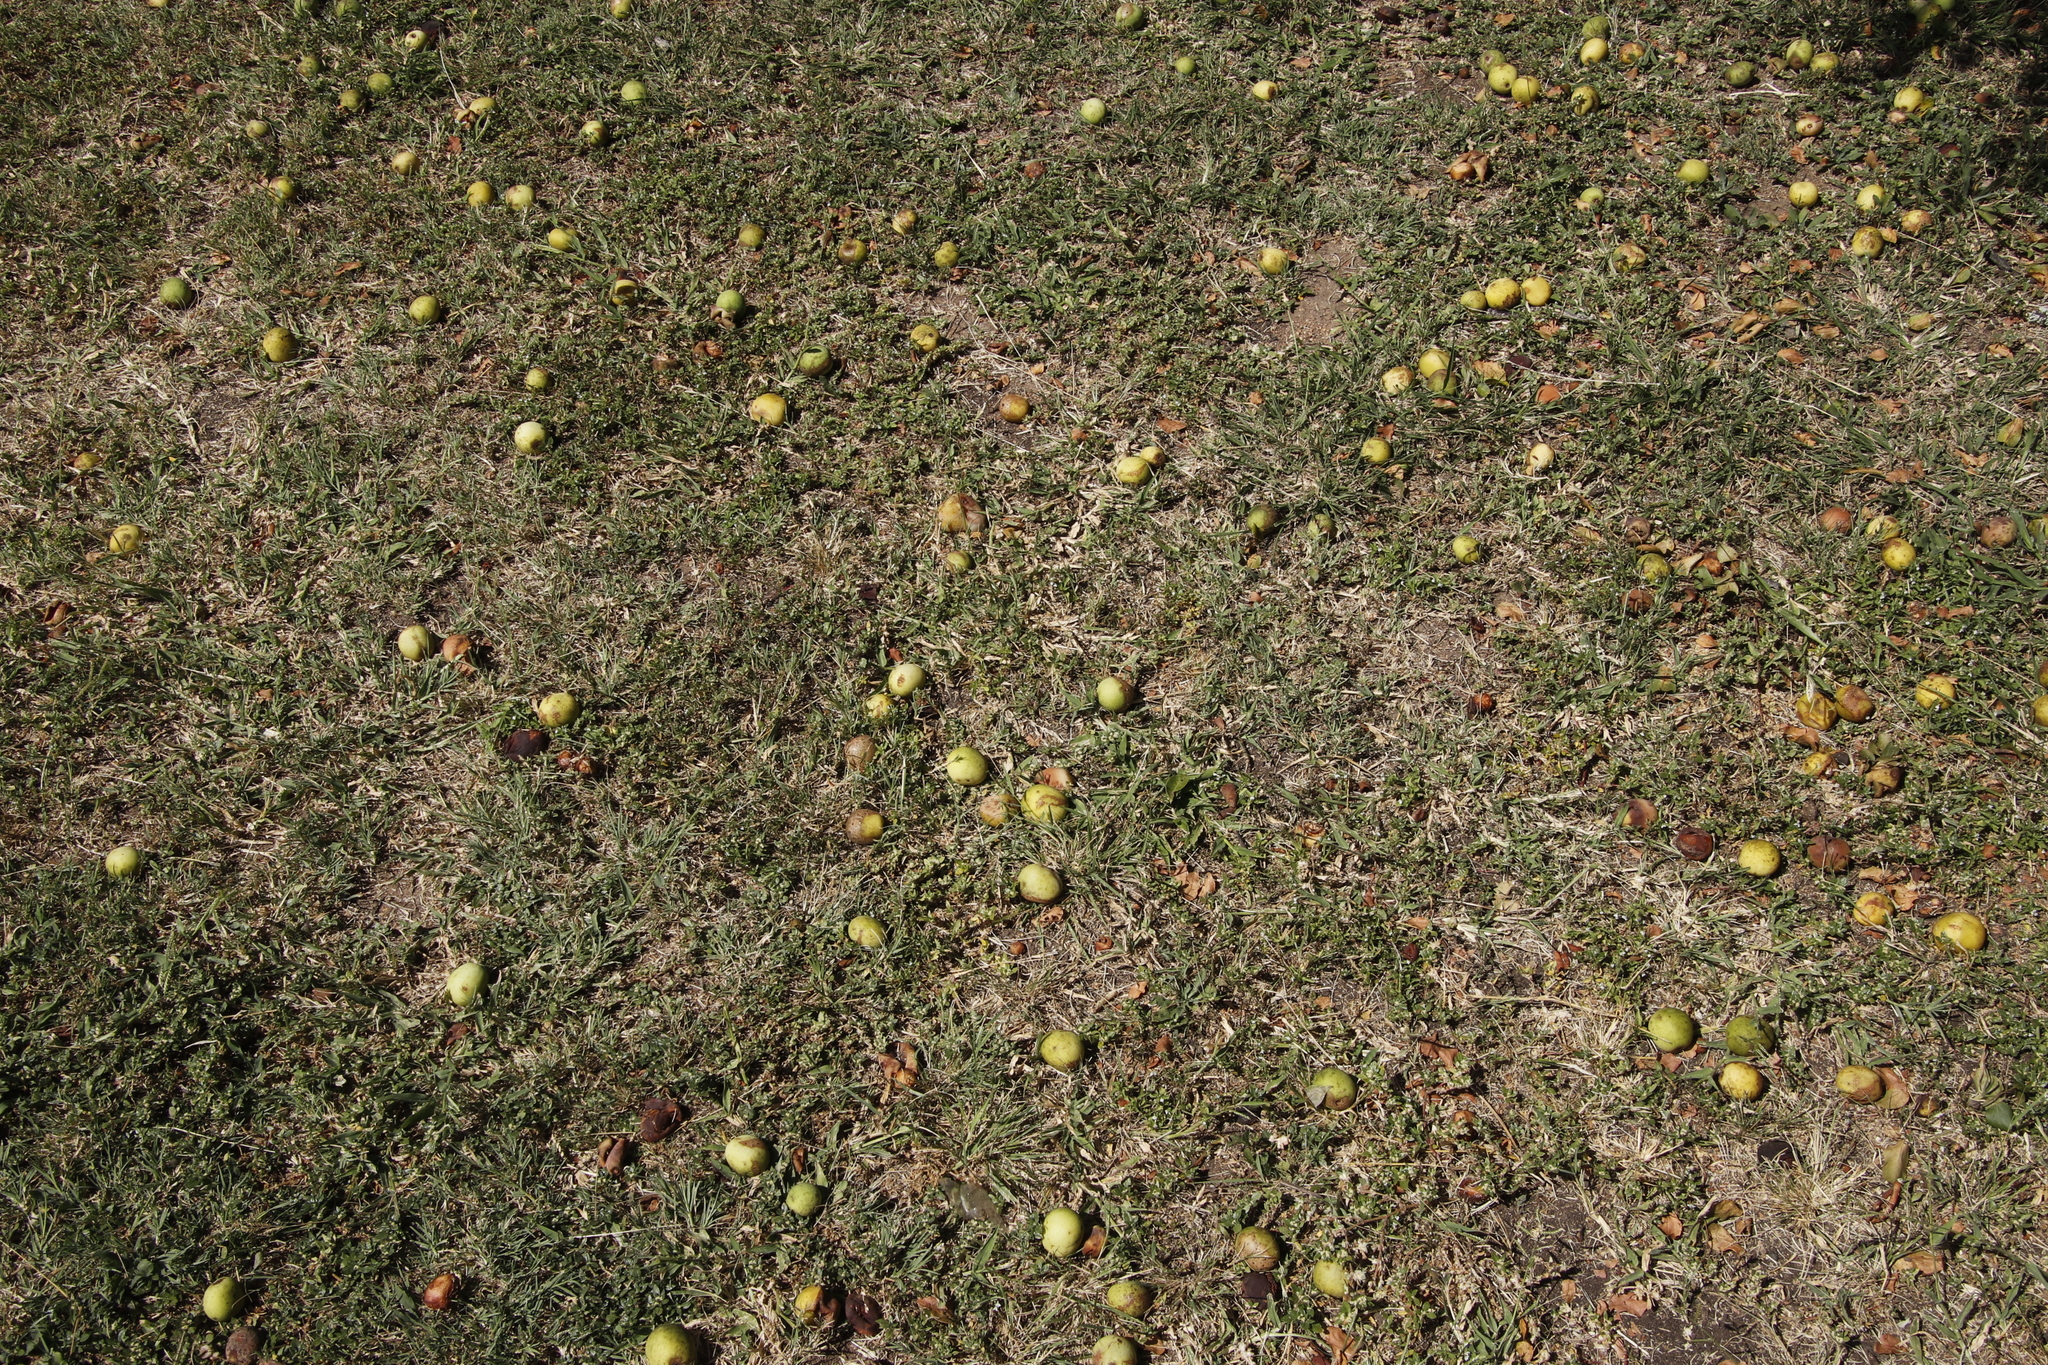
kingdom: Plantae
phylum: Tracheophyta
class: Magnoliopsida
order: Sapindales
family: Anacardiaceae
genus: Sclerocarya
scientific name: Sclerocarya birrea
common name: Marula
